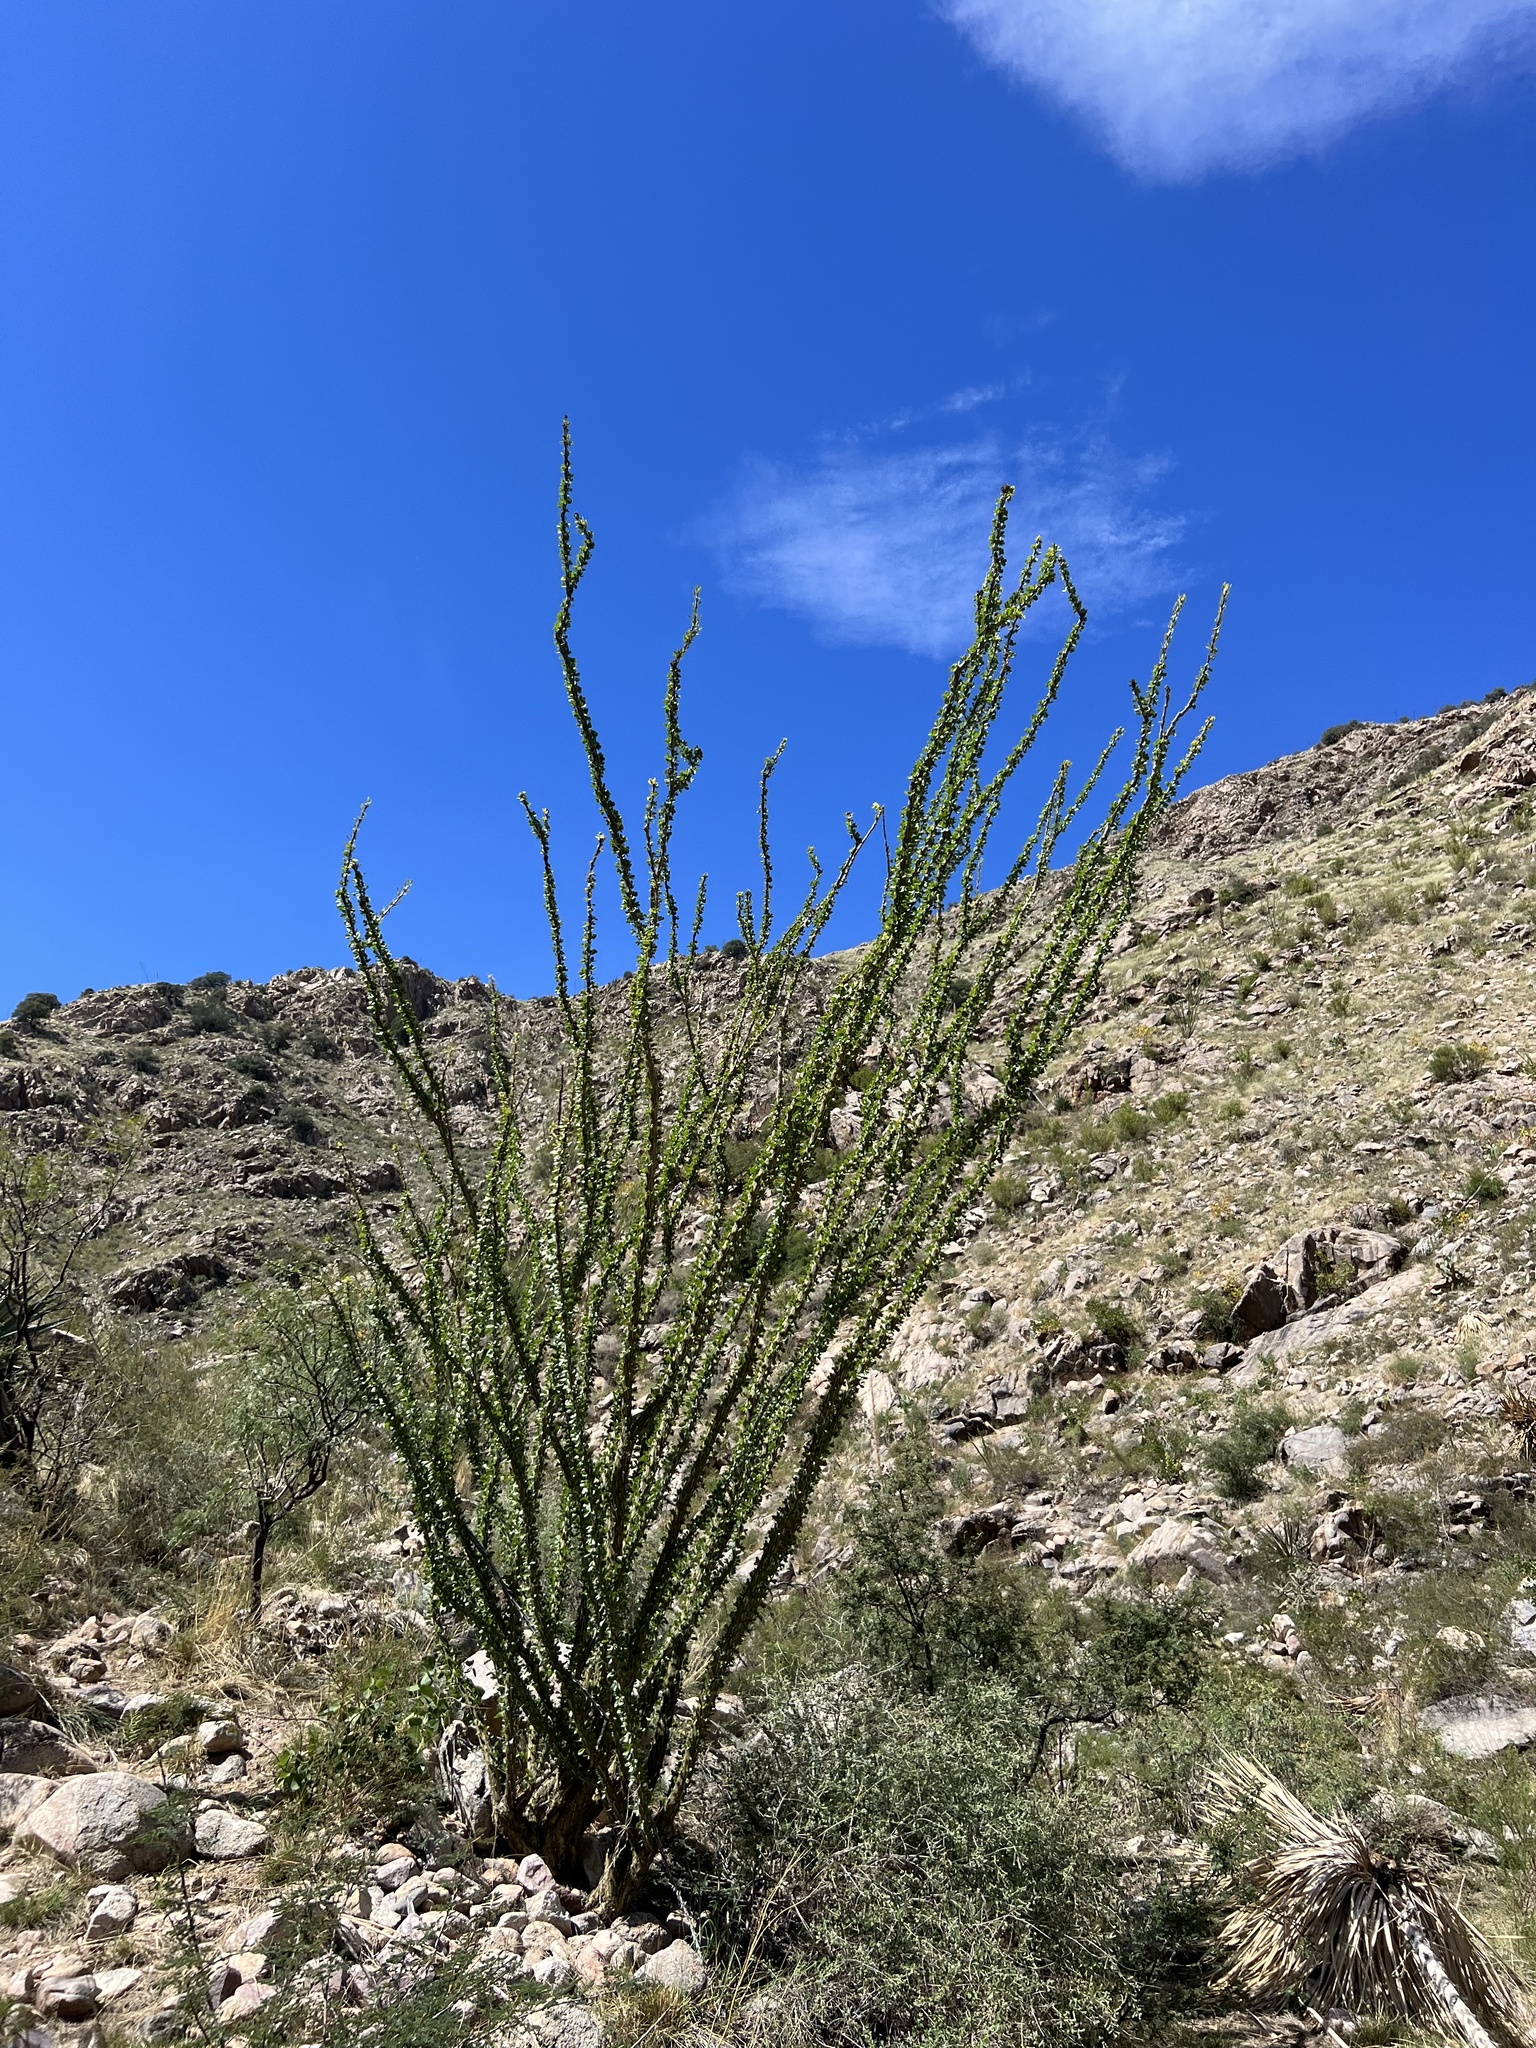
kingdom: Plantae
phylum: Tracheophyta
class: Magnoliopsida
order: Ericales
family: Fouquieriaceae
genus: Fouquieria
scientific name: Fouquieria splendens
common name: Vine-cactus
